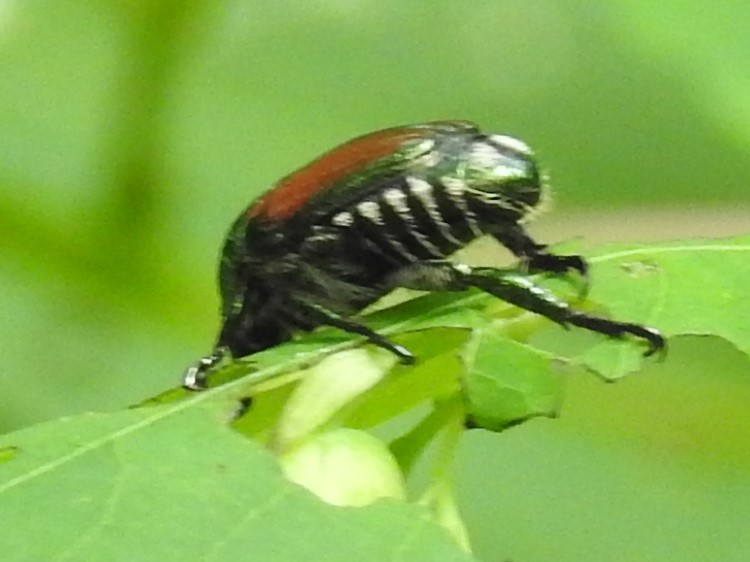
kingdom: Animalia
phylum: Arthropoda
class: Insecta
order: Coleoptera
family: Scarabaeidae
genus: Popillia
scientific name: Popillia japonica
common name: Japanese beetle
